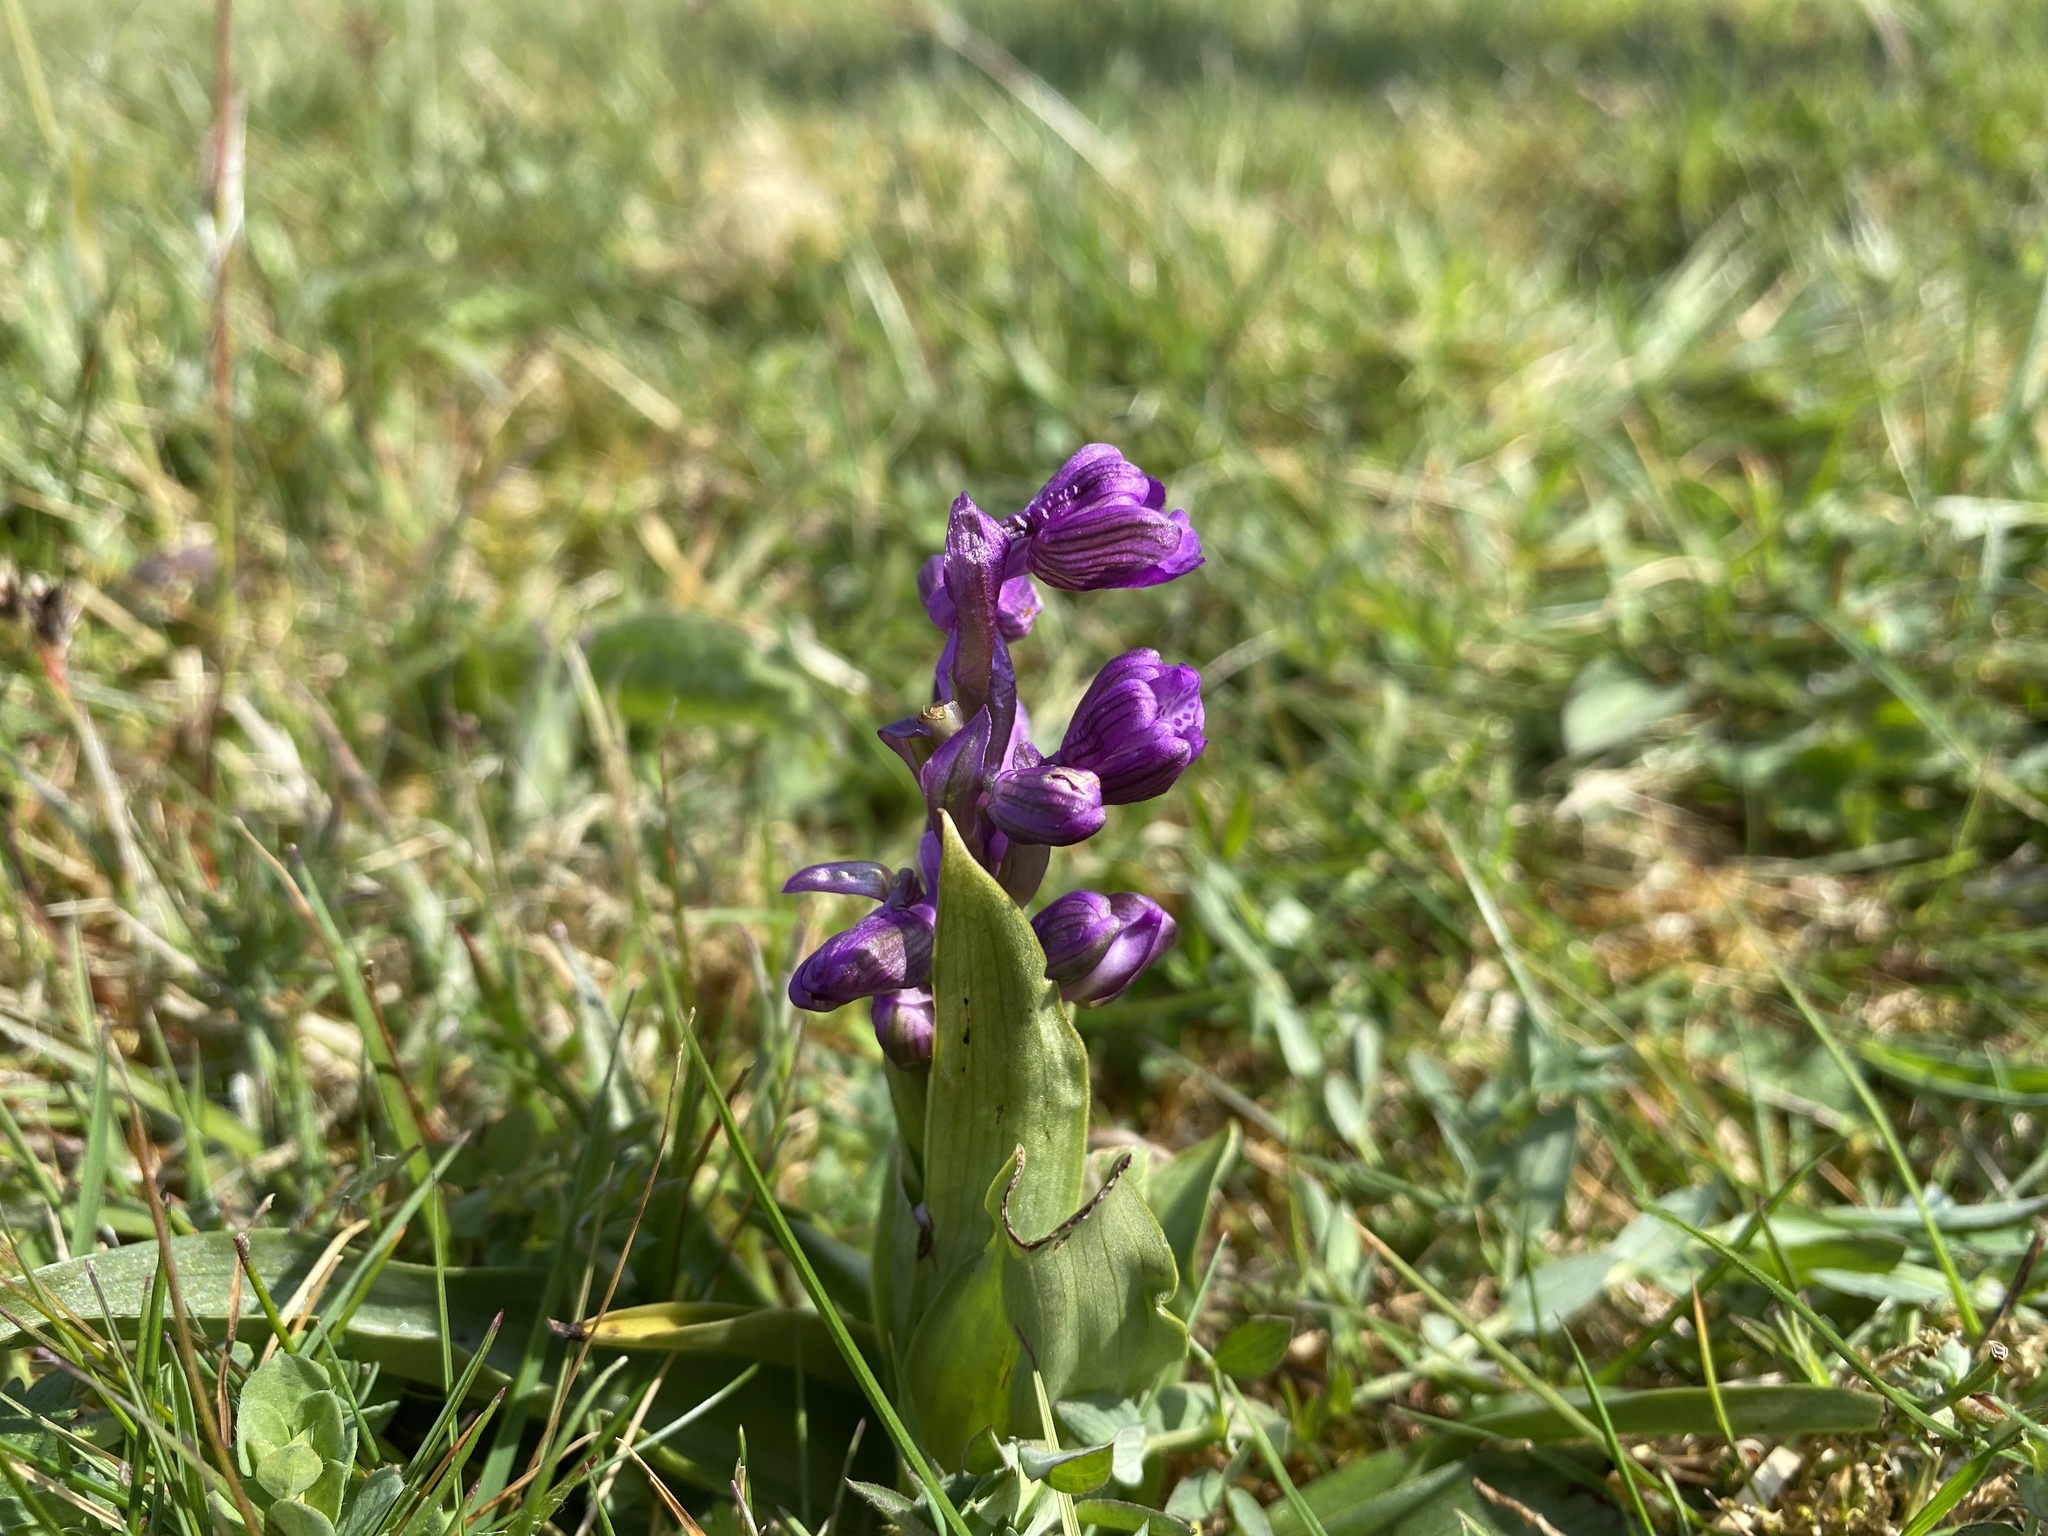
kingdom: Plantae
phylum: Tracheophyta
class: Liliopsida
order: Asparagales
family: Orchidaceae
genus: Anacamptis
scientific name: Anacamptis morio
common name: Green-winged orchid
